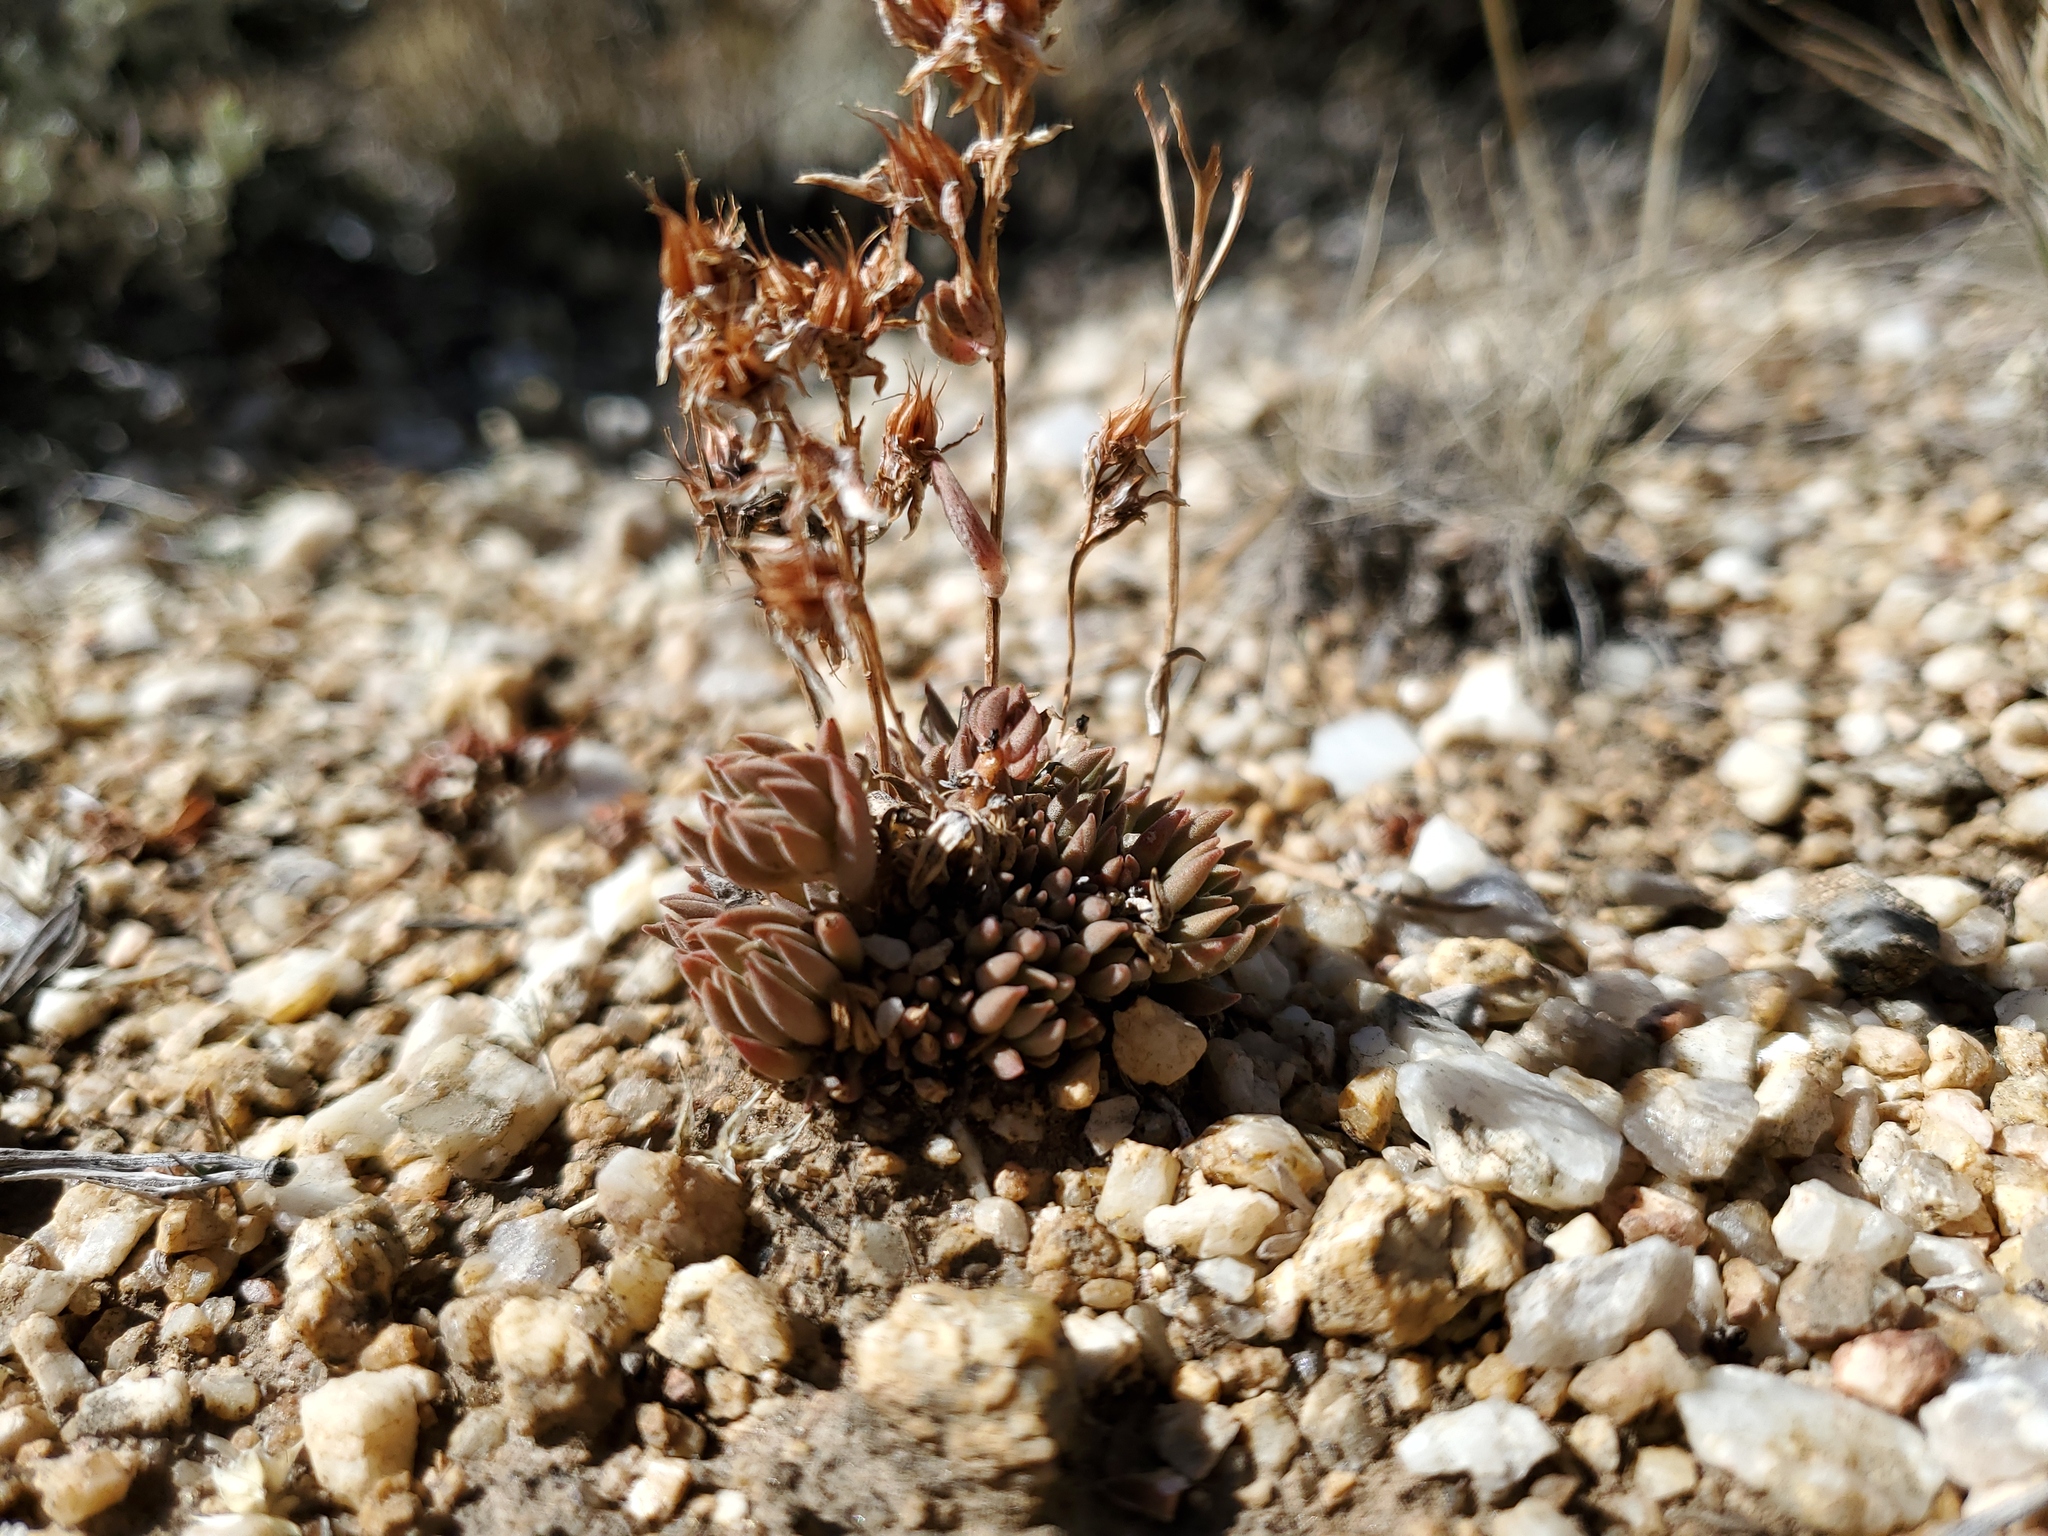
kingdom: Plantae
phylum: Tracheophyta
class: Magnoliopsida
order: Saxifragales
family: Crassulaceae
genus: Sedum
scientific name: Sedum lanceolatum
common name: Common stonecrop
